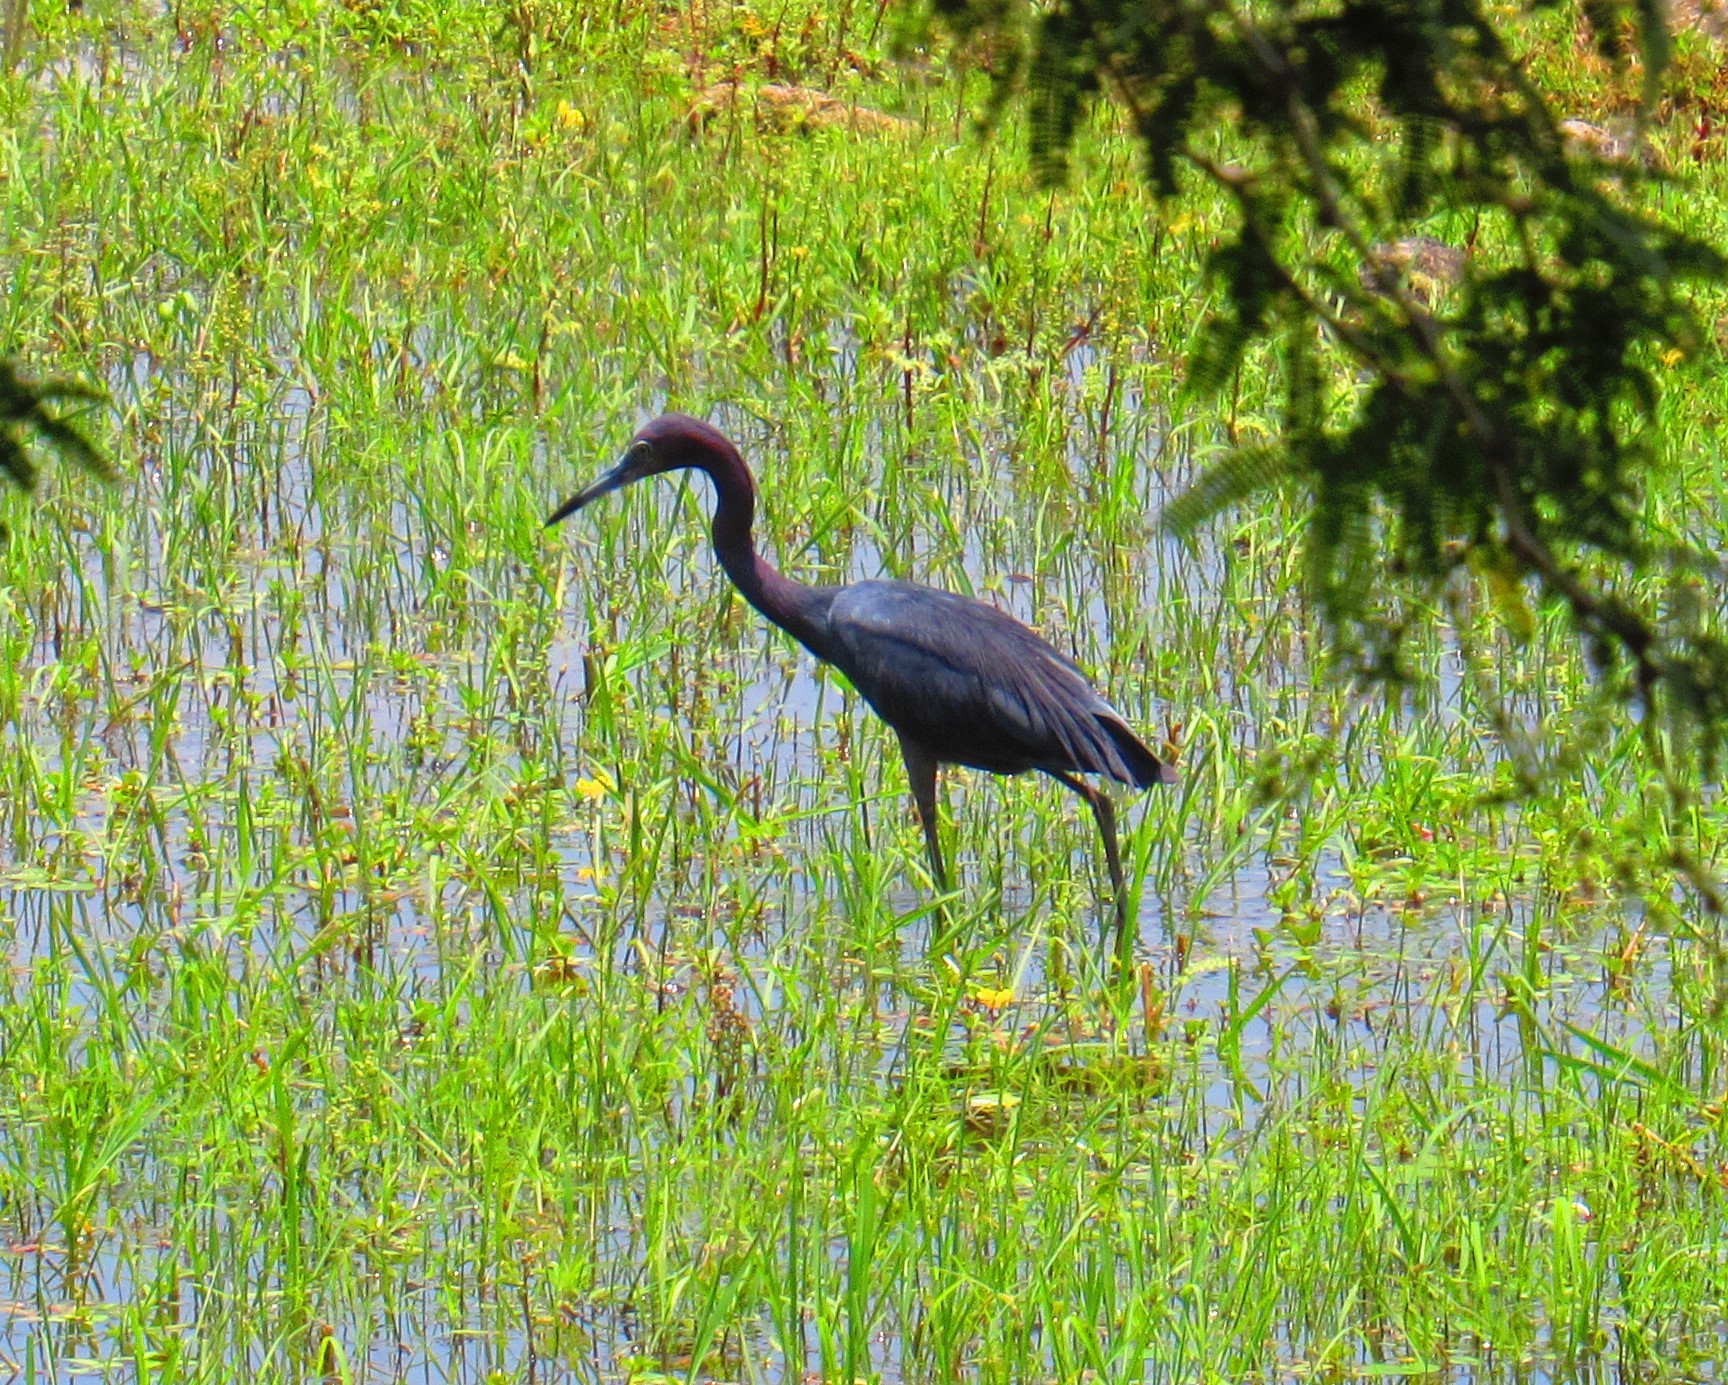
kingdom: Animalia
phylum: Chordata
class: Aves
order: Pelecaniformes
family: Ardeidae
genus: Egretta
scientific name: Egretta caerulea
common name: Little blue heron
